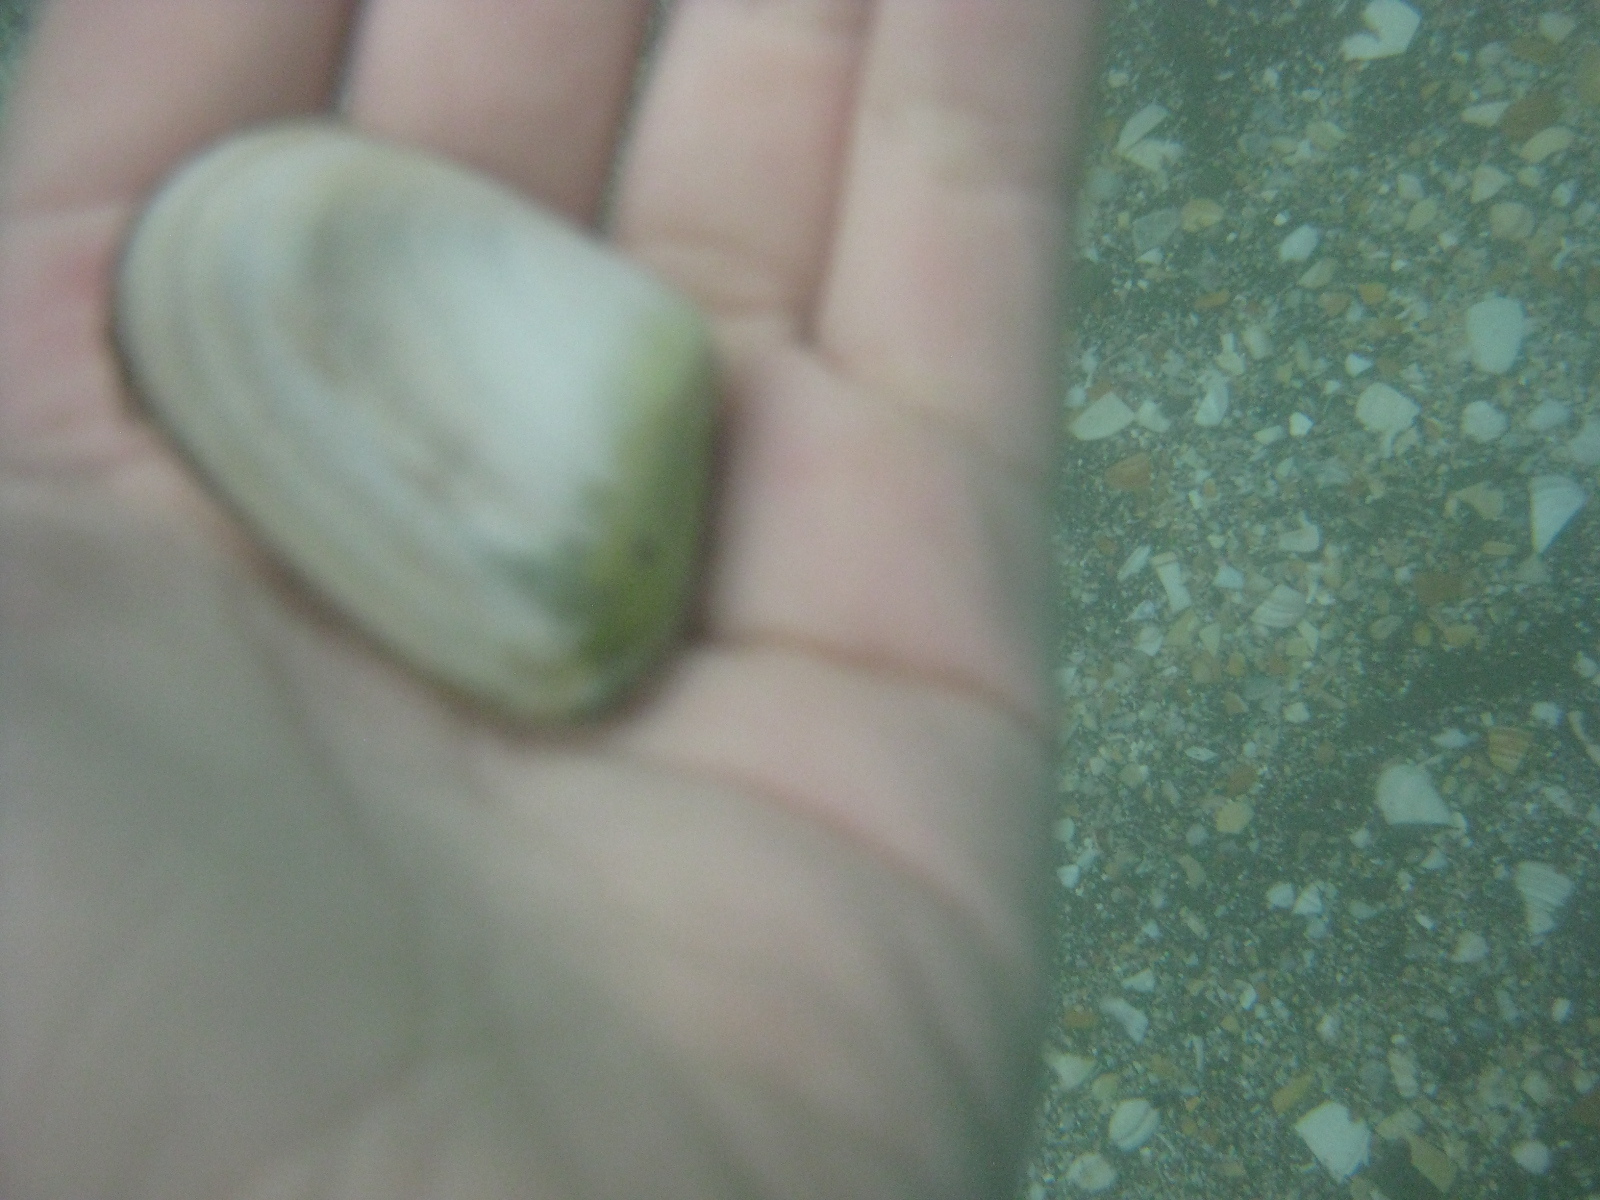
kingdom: Animalia
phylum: Mollusca
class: Bivalvia
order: Venerida
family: Mesodesmatidae
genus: Paphies
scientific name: Paphies subtriangulata
